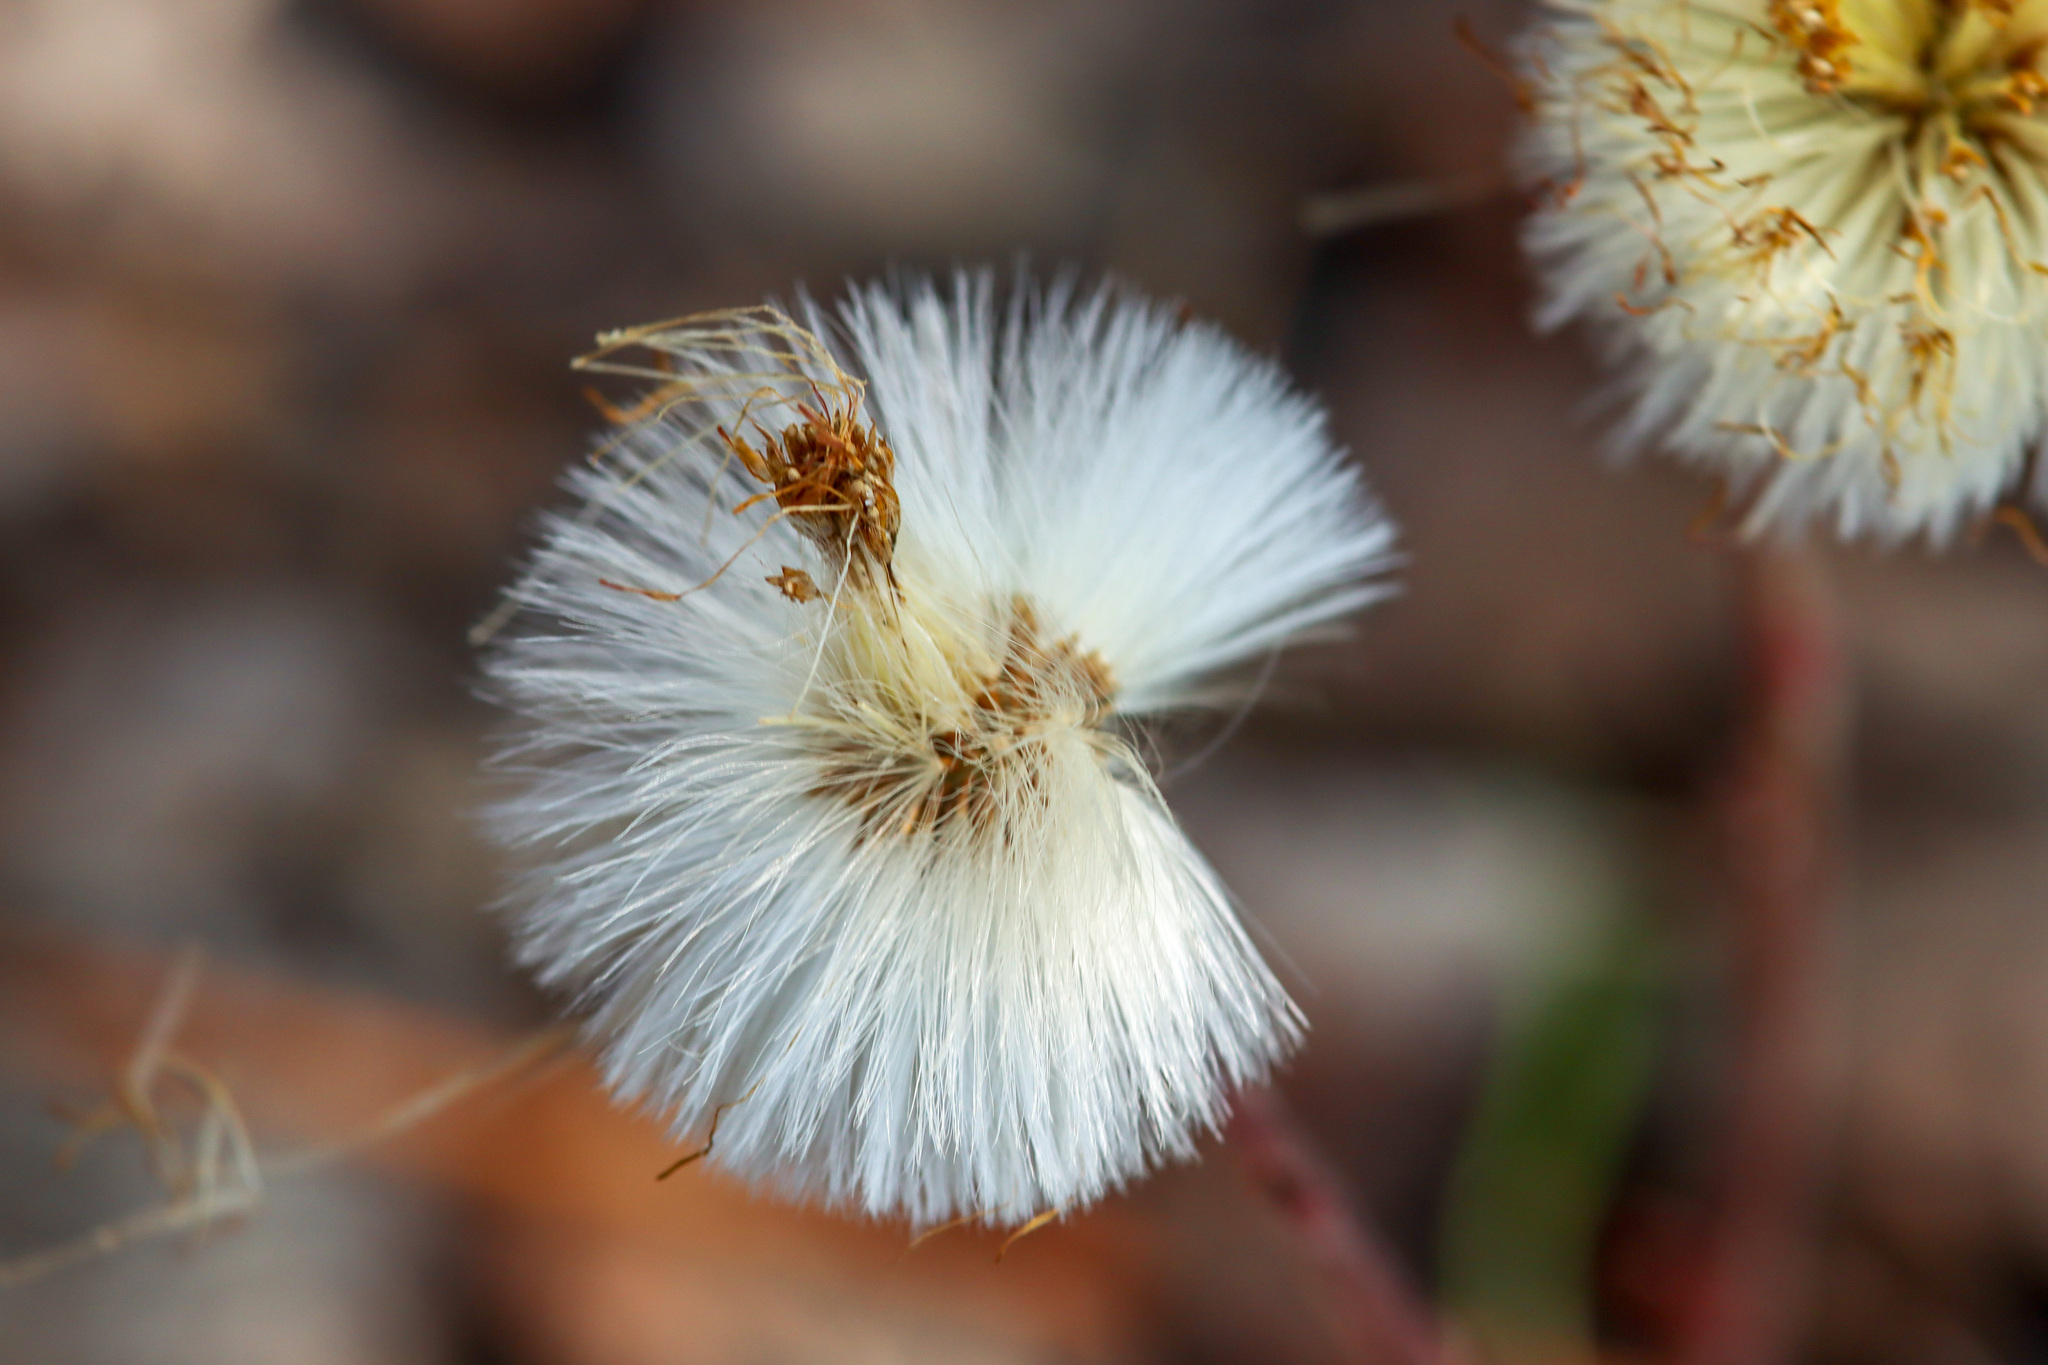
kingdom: Plantae
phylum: Tracheophyta
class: Magnoliopsida
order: Asterales
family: Asteraceae
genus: Tussilago
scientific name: Tussilago farfara
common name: Coltsfoot
